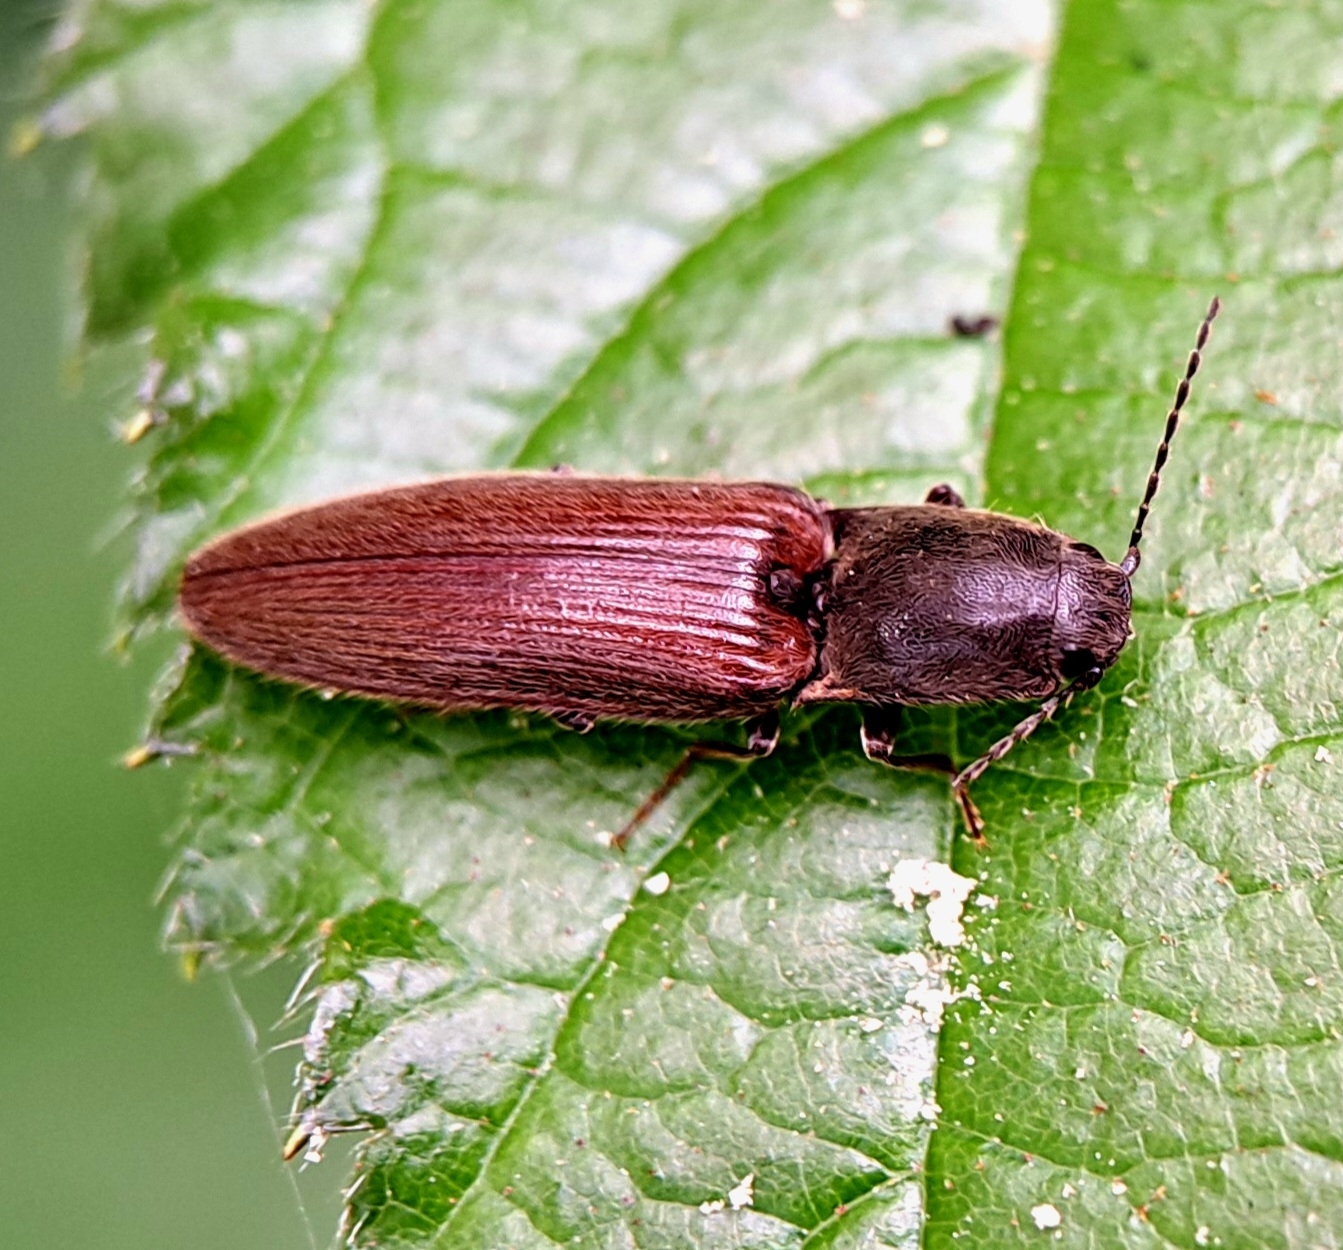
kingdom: Animalia
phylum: Arthropoda
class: Insecta
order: Coleoptera
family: Elateridae
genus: Athous
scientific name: Athous haemorrhoidalis
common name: Red-brown click beetle
